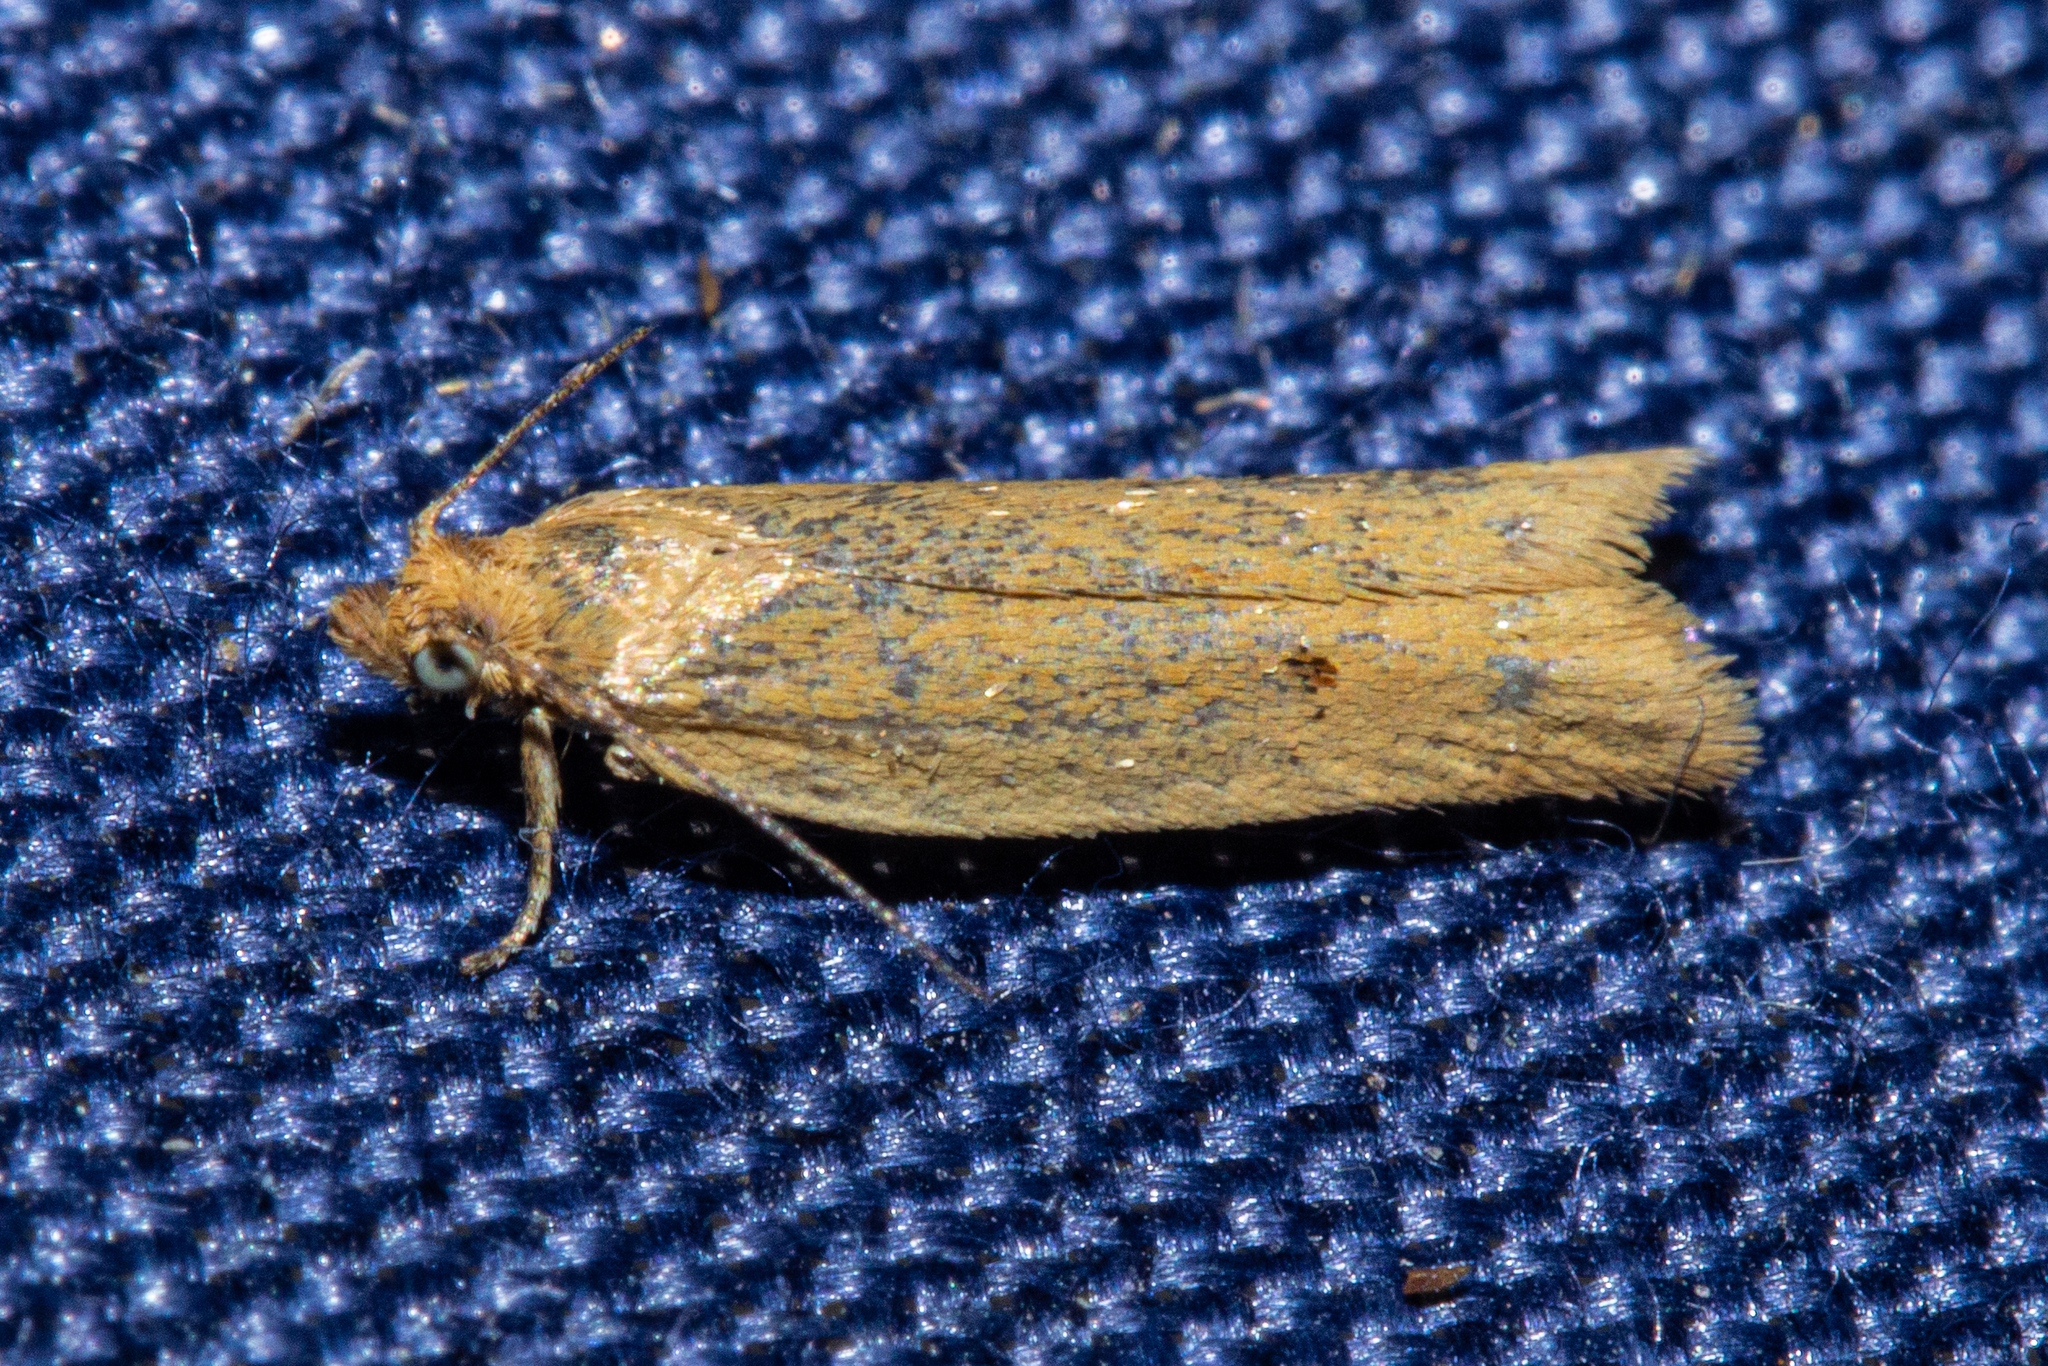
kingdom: Animalia
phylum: Arthropoda
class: Insecta
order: Lepidoptera
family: Tortricidae
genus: Epichorista
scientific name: Epichorista siriana
